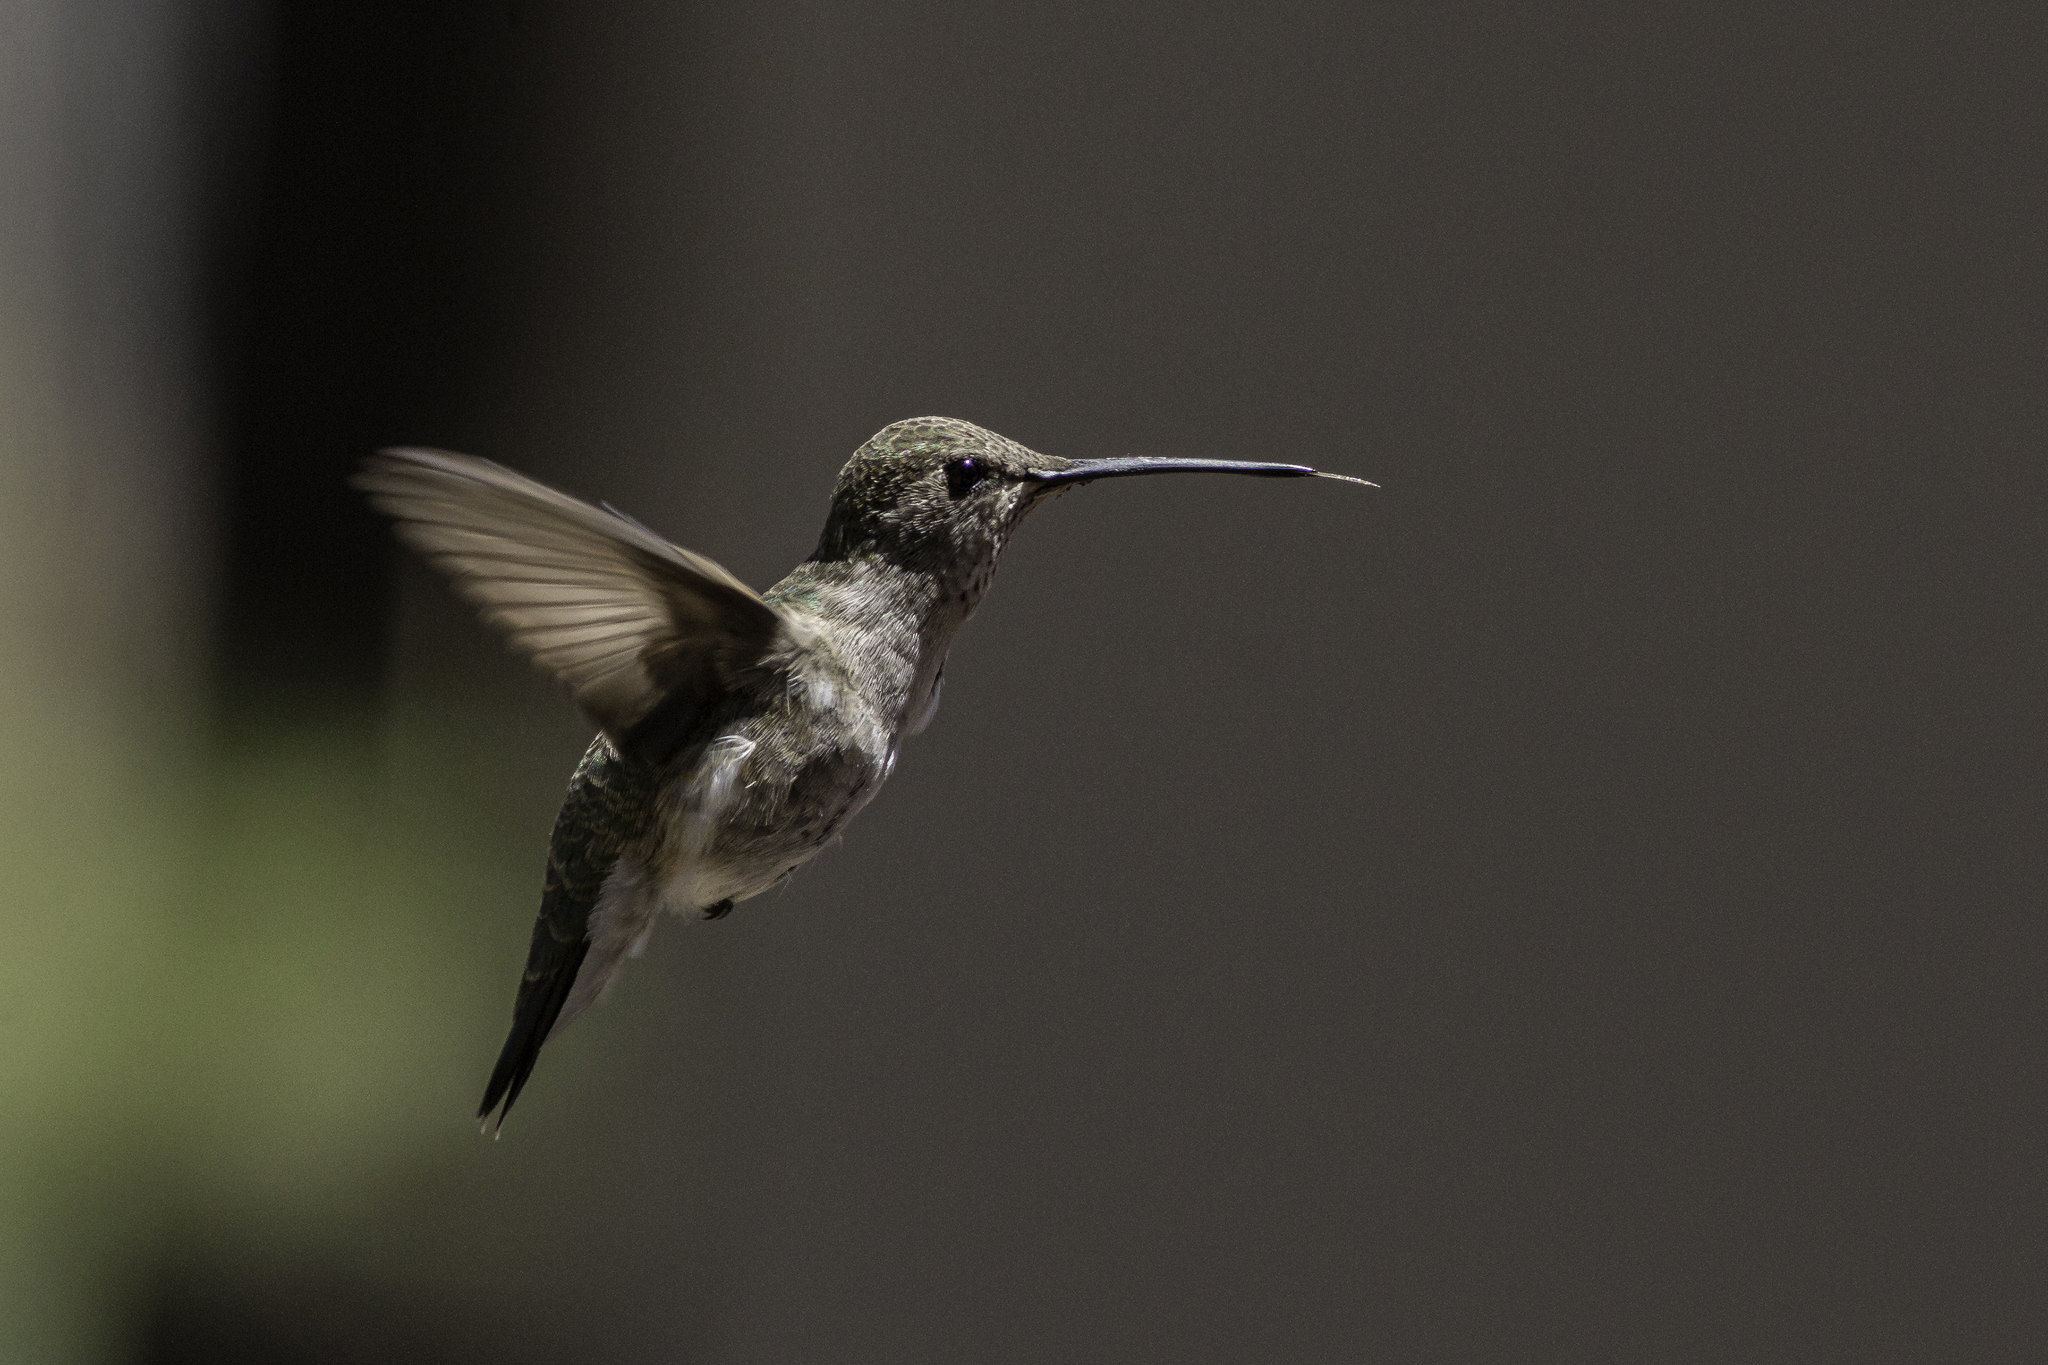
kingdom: Animalia
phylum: Chordata
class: Aves
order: Apodiformes
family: Trochilidae
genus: Archilochus
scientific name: Archilochus alexandri
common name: Black-chinned hummingbird
